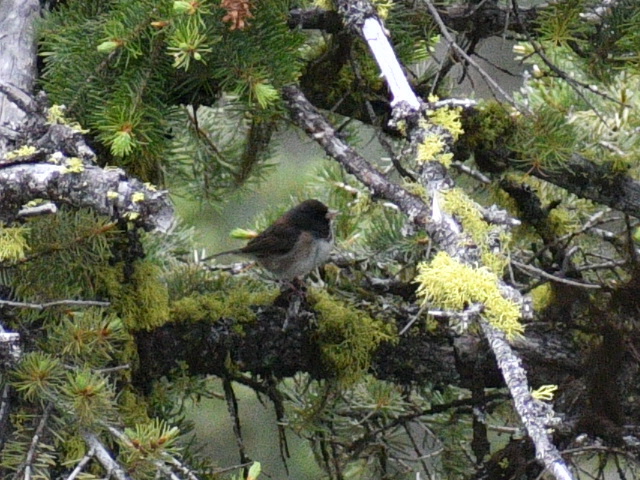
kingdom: Animalia
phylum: Chordata
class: Aves
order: Passeriformes
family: Passerellidae
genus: Junco
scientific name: Junco hyemalis
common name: Dark-eyed junco
